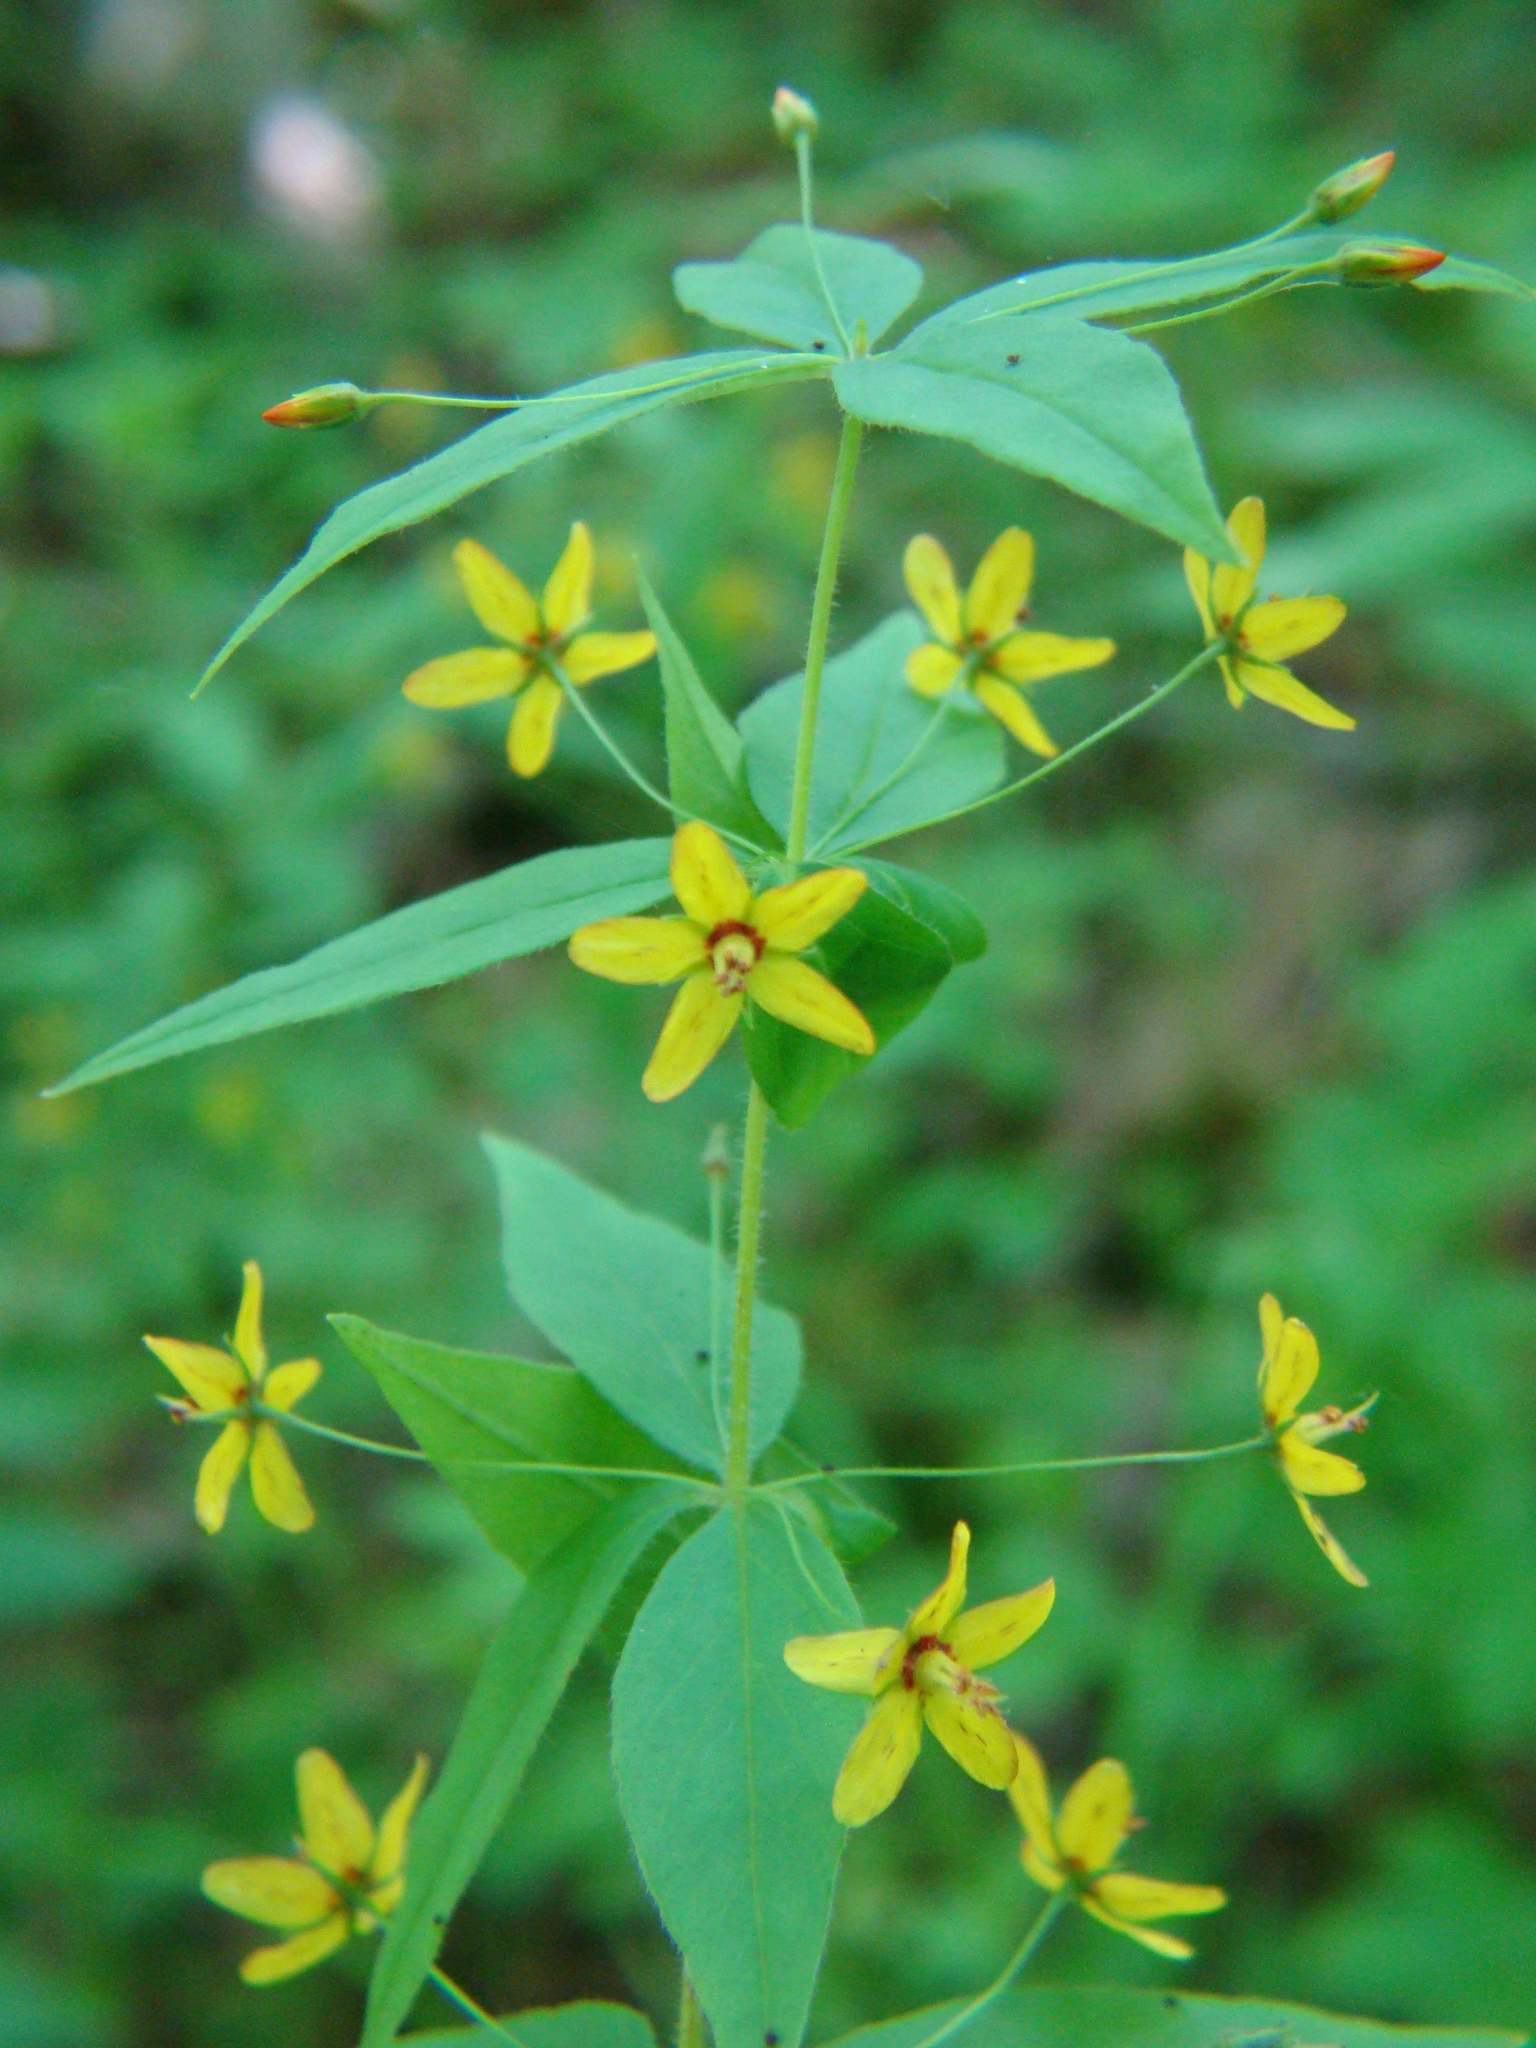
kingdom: Plantae
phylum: Tracheophyta
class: Magnoliopsida
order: Ericales
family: Primulaceae
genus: Lysimachia
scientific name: Lysimachia quadrifolia
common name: Whorled loosestrife
